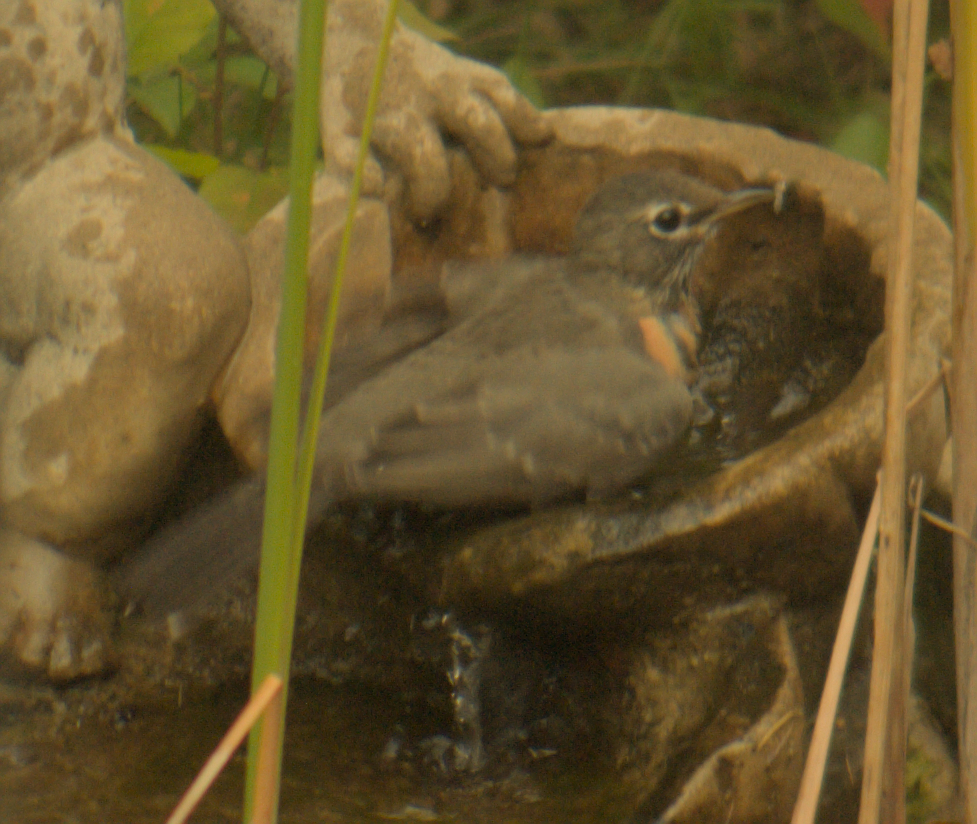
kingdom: Animalia
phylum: Chordata
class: Aves
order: Passeriformes
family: Turdidae
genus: Turdus
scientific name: Turdus migratorius
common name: American robin
